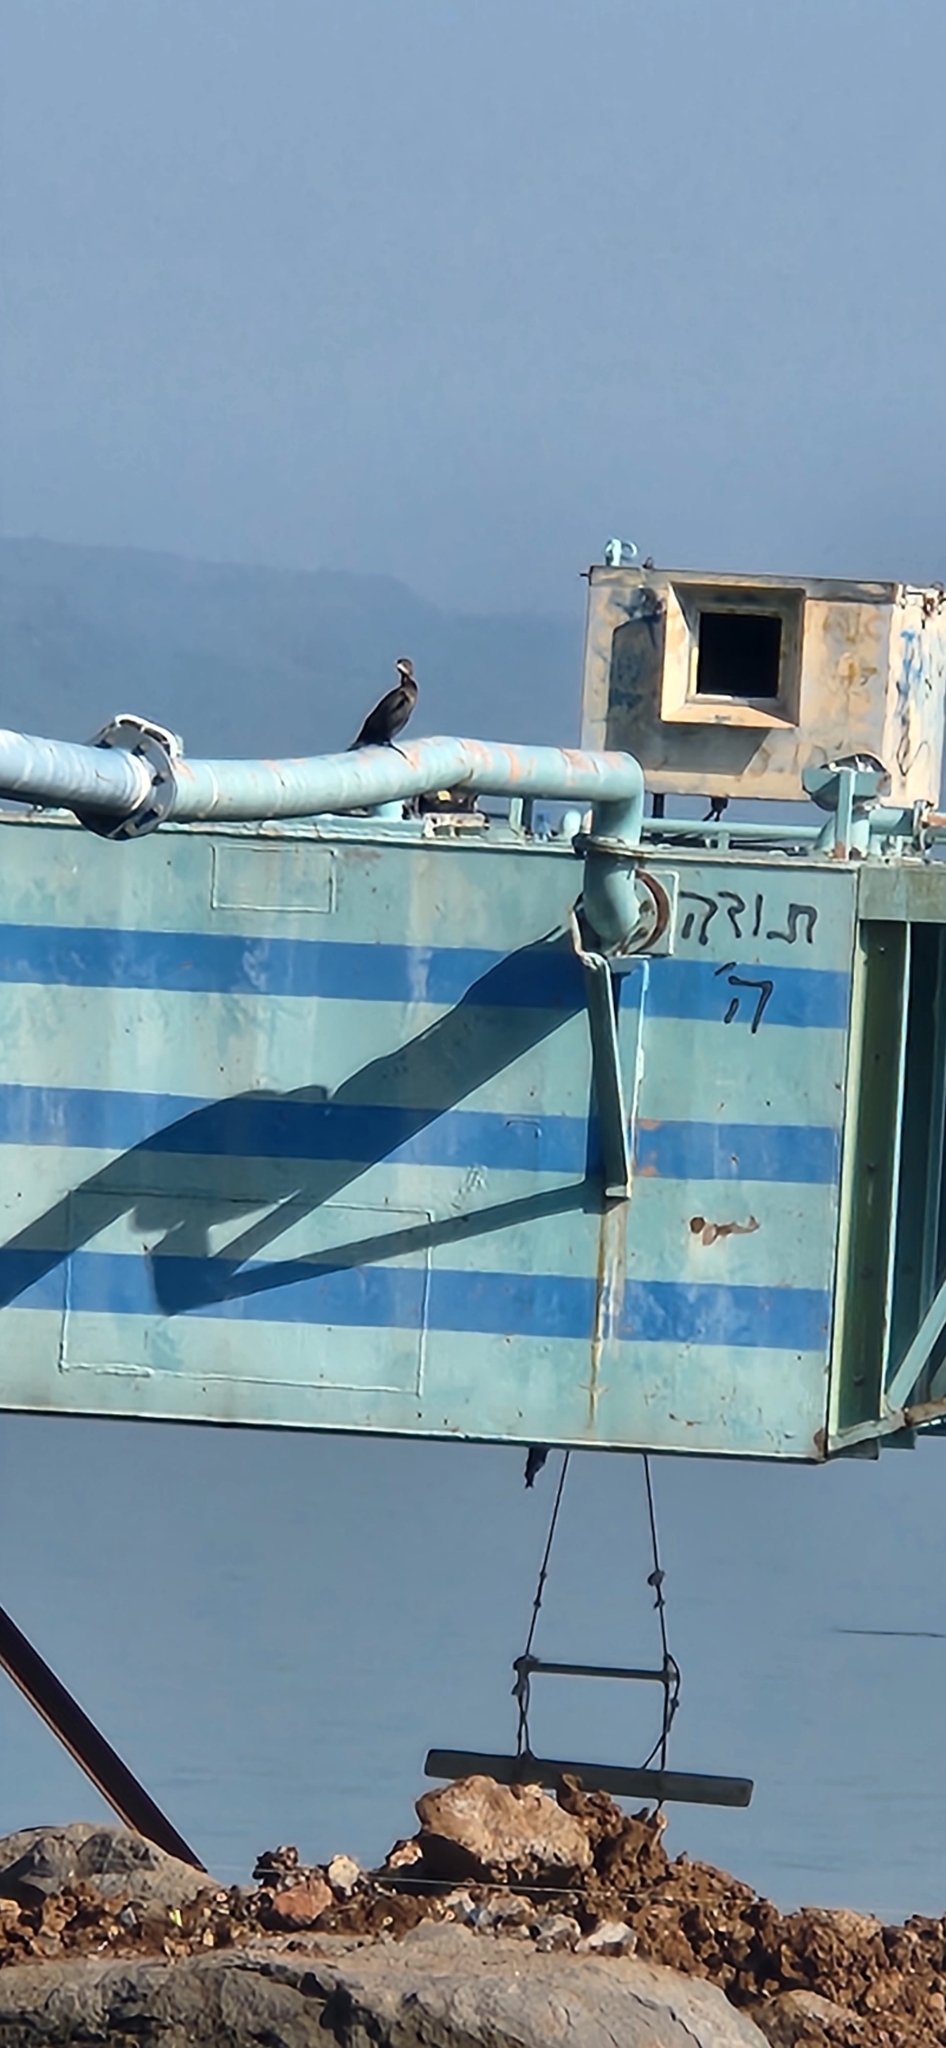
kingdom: Animalia
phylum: Chordata
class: Aves
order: Suliformes
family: Phalacrocoracidae
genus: Microcarbo
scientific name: Microcarbo pygmaeus
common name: Pygmy cormorant
